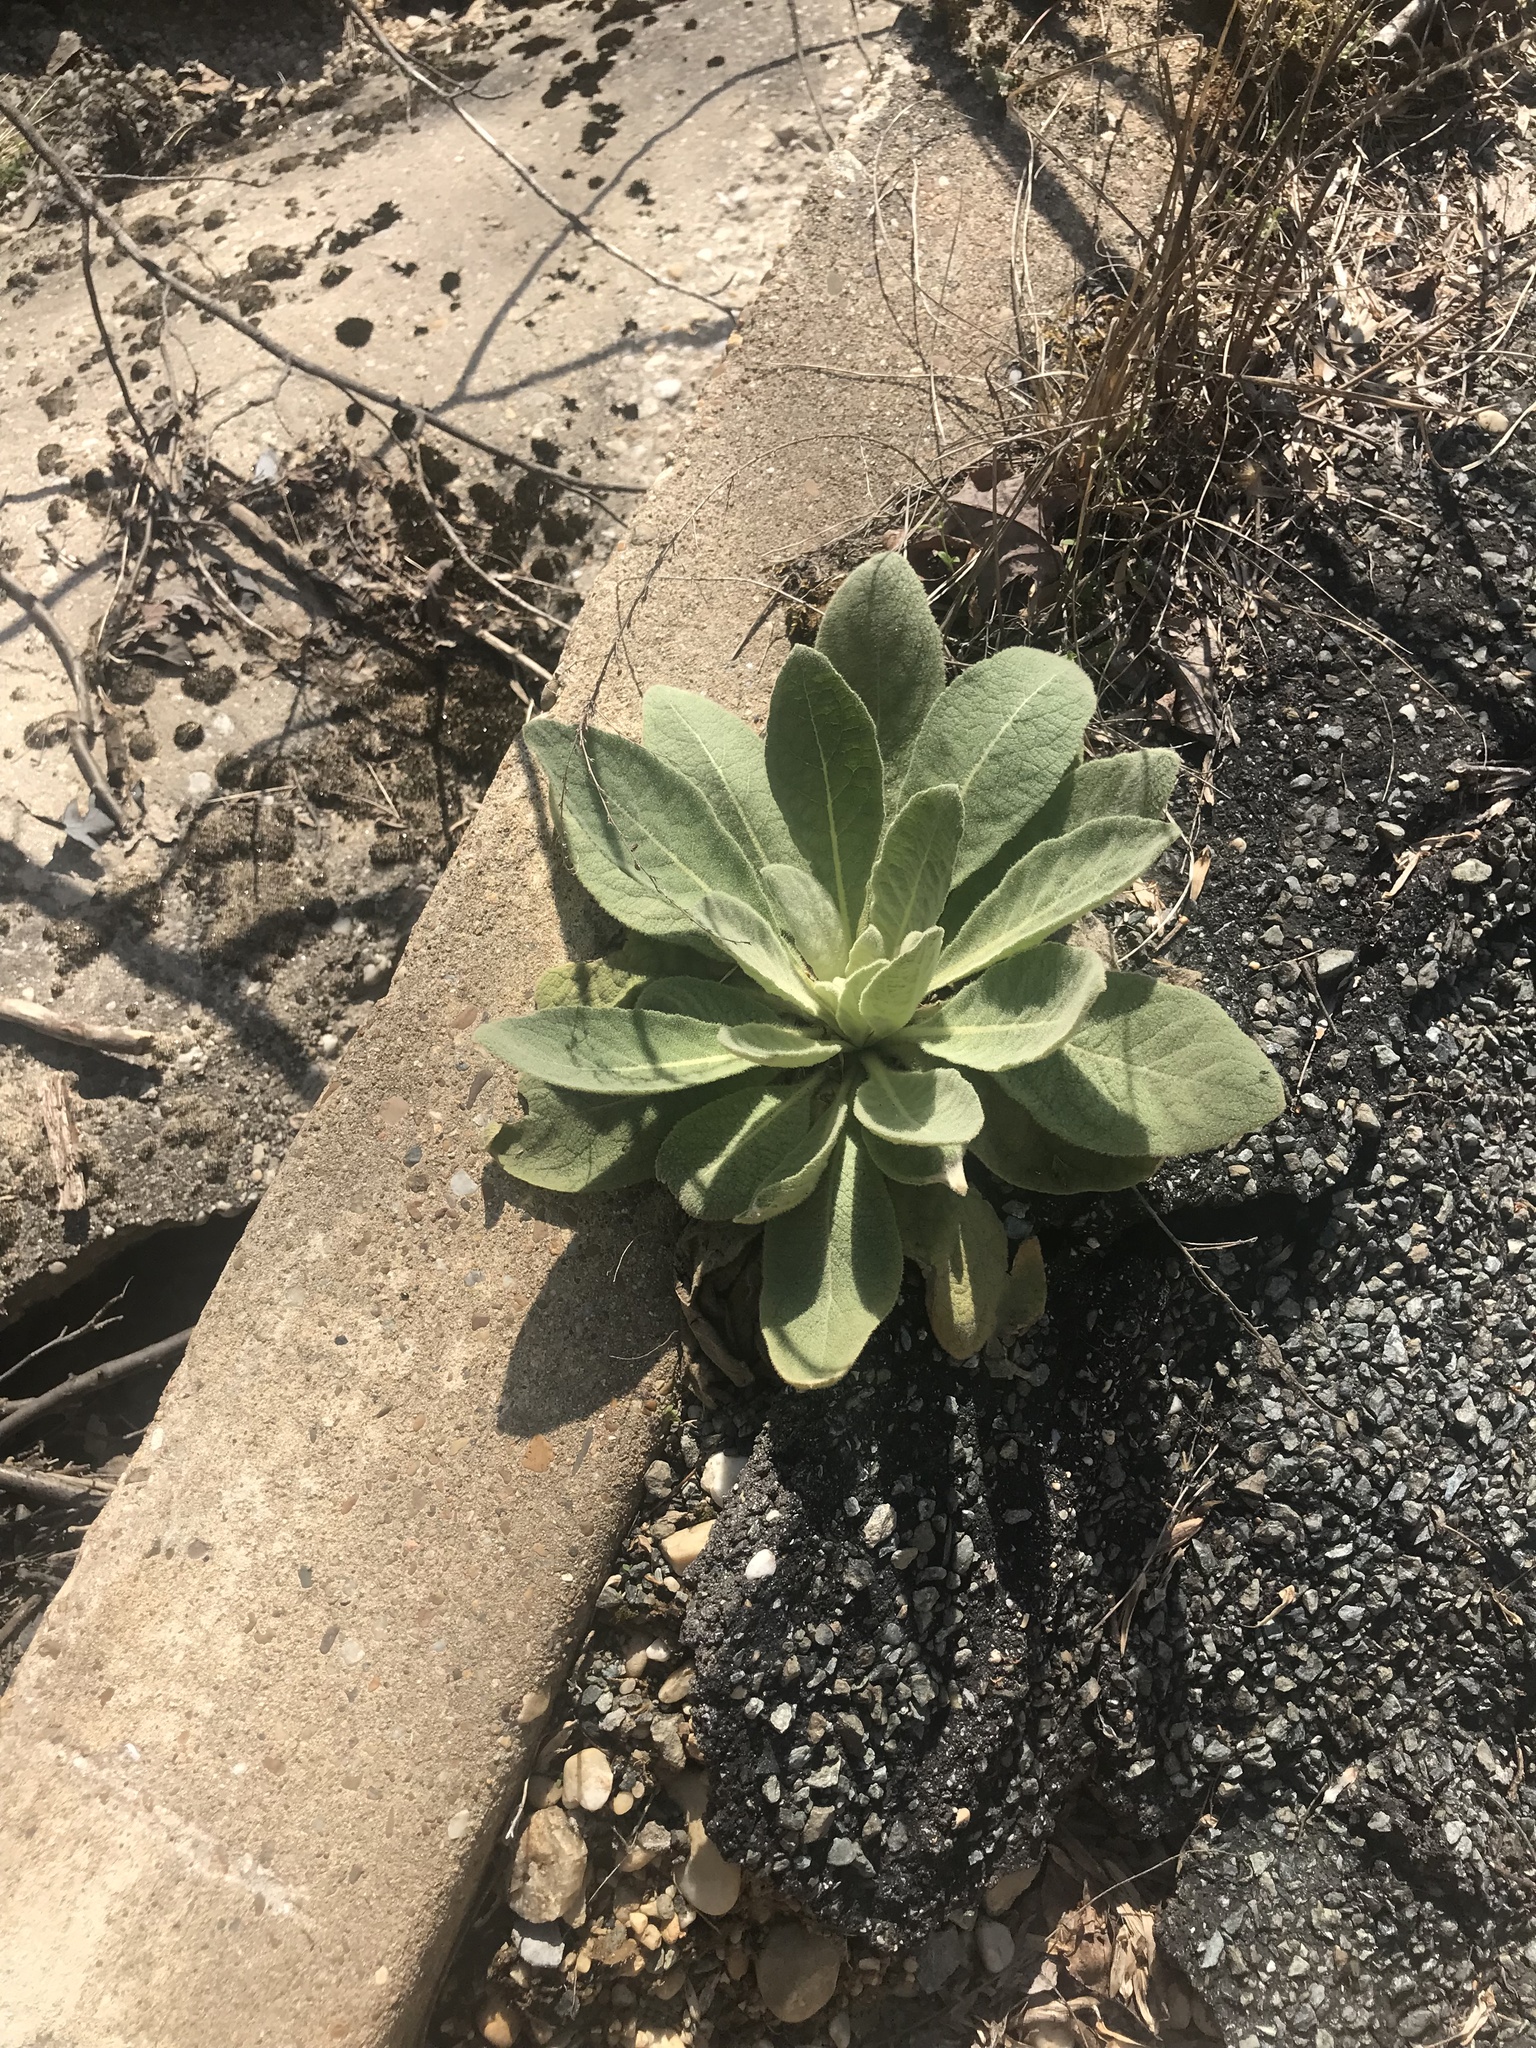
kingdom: Plantae
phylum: Tracheophyta
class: Magnoliopsida
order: Lamiales
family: Scrophulariaceae
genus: Verbascum
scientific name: Verbascum thapsus
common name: Common mullein
